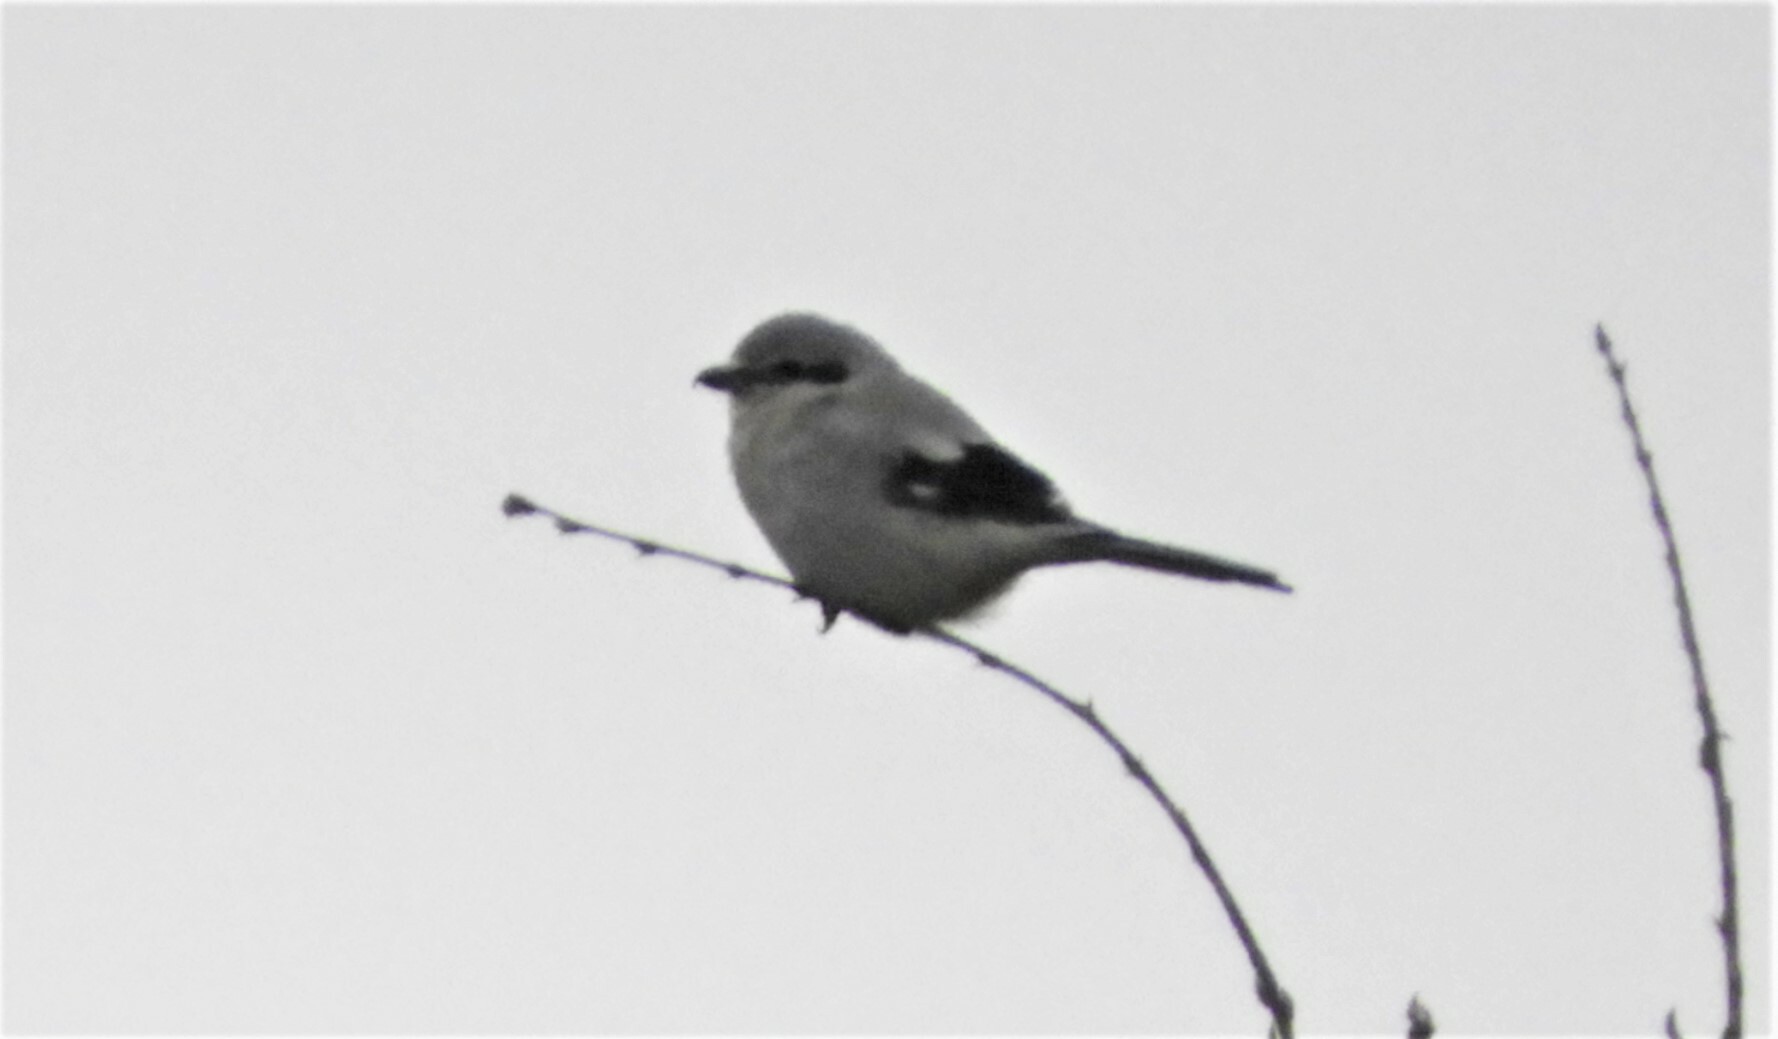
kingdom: Animalia
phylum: Chordata
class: Aves
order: Passeriformes
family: Laniidae
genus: Lanius
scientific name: Lanius borealis
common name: Northern shrike
